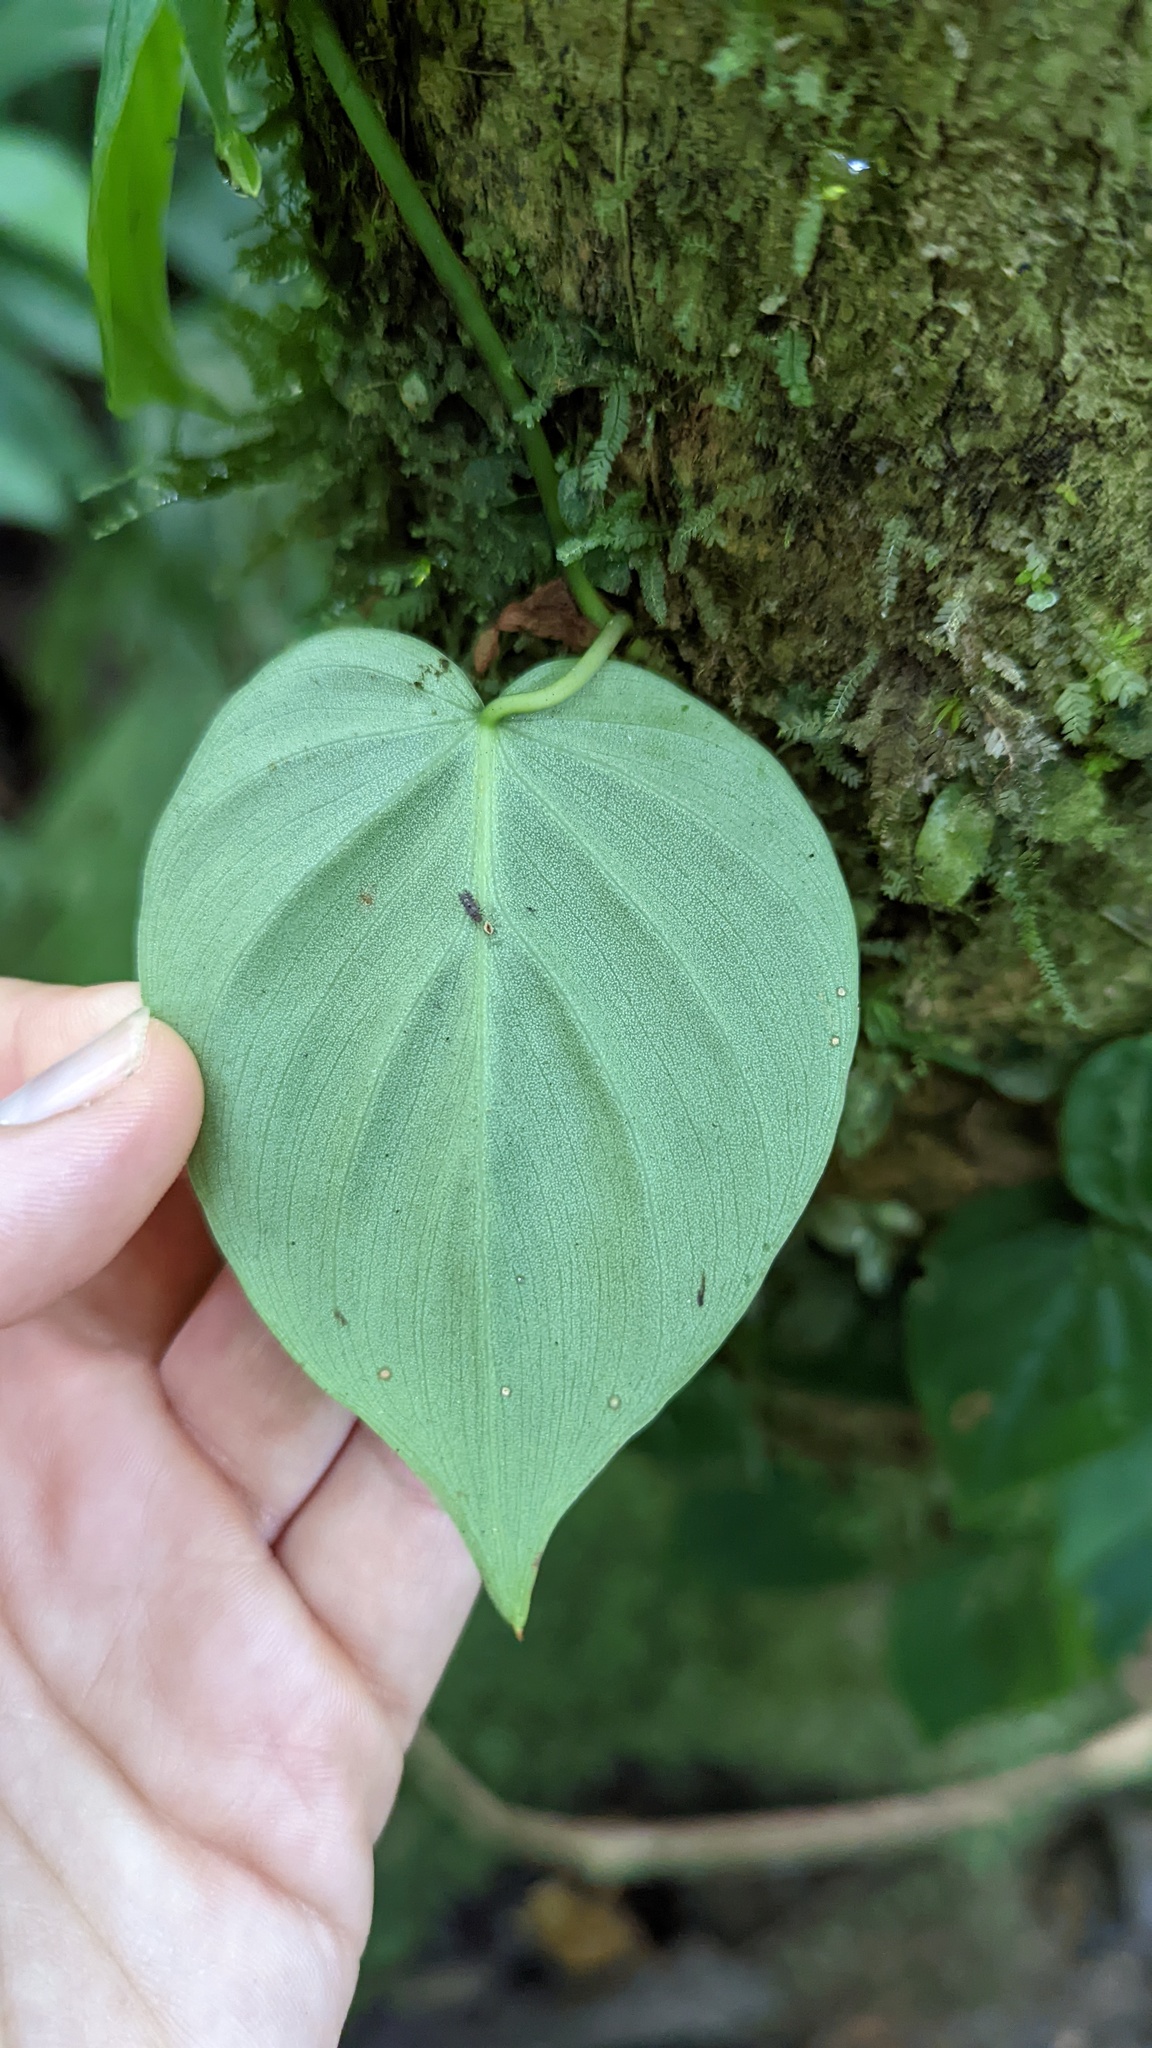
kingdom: Plantae
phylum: Tracheophyta
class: Liliopsida
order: Alismatales
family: Araceae
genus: Philodendron
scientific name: Philodendron hederaceum
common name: Vilevine
